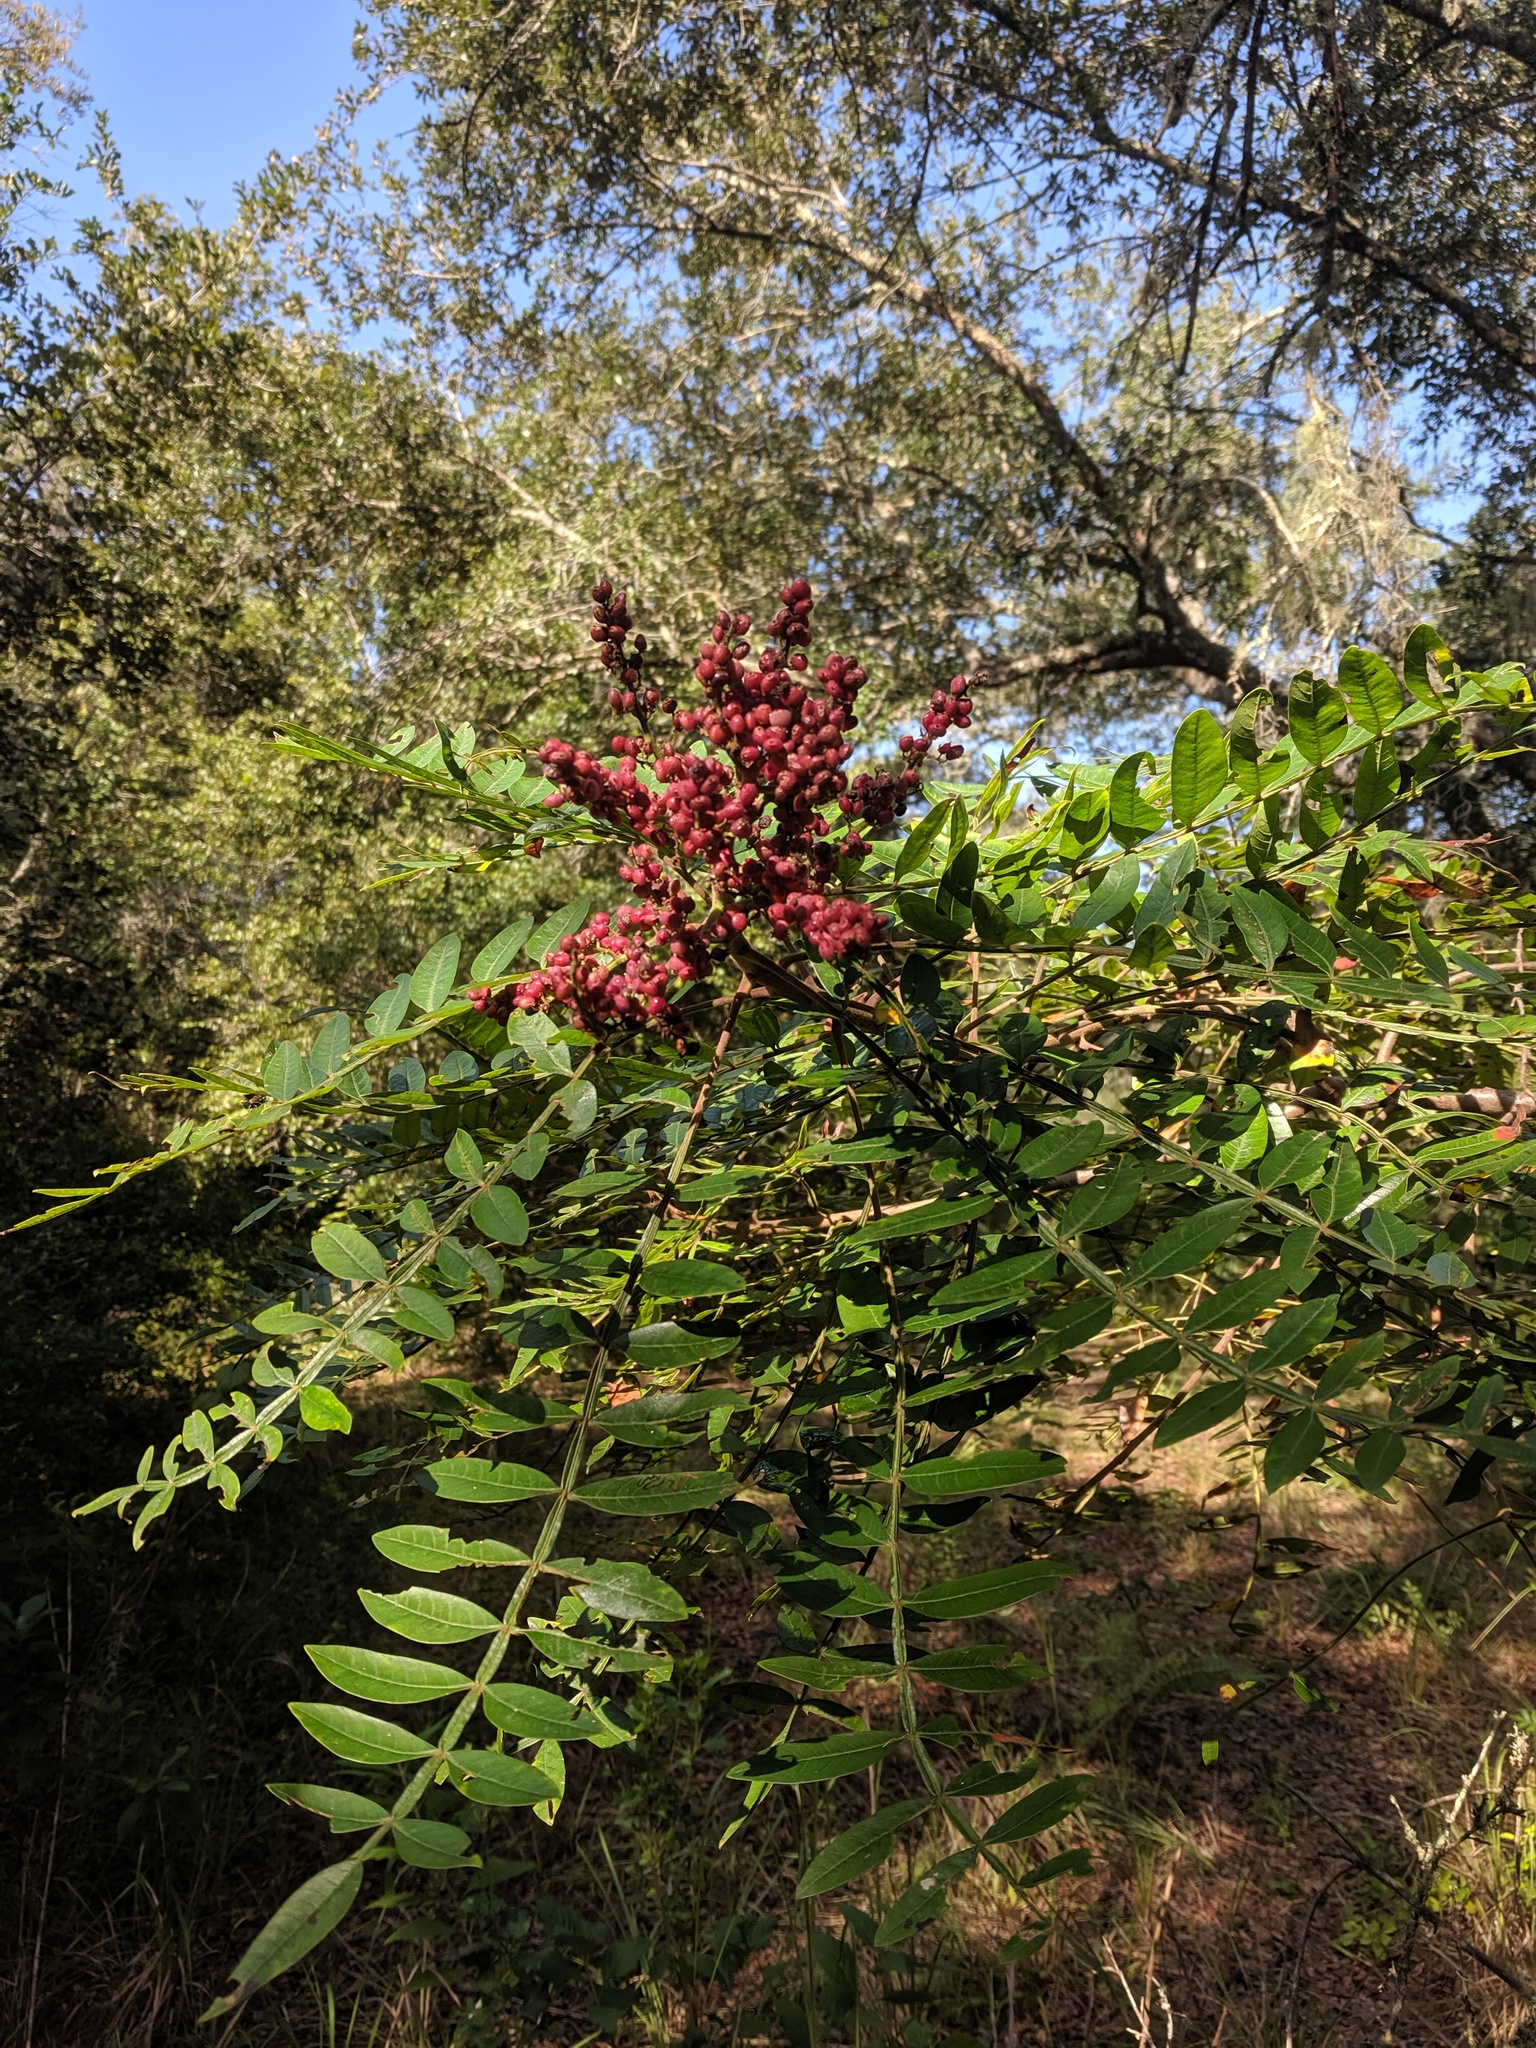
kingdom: Plantae
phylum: Tracheophyta
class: Magnoliopsida
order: Sapindales
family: Anacardiaceae
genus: Rhus
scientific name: Rhus copallina
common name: Shining sumac
